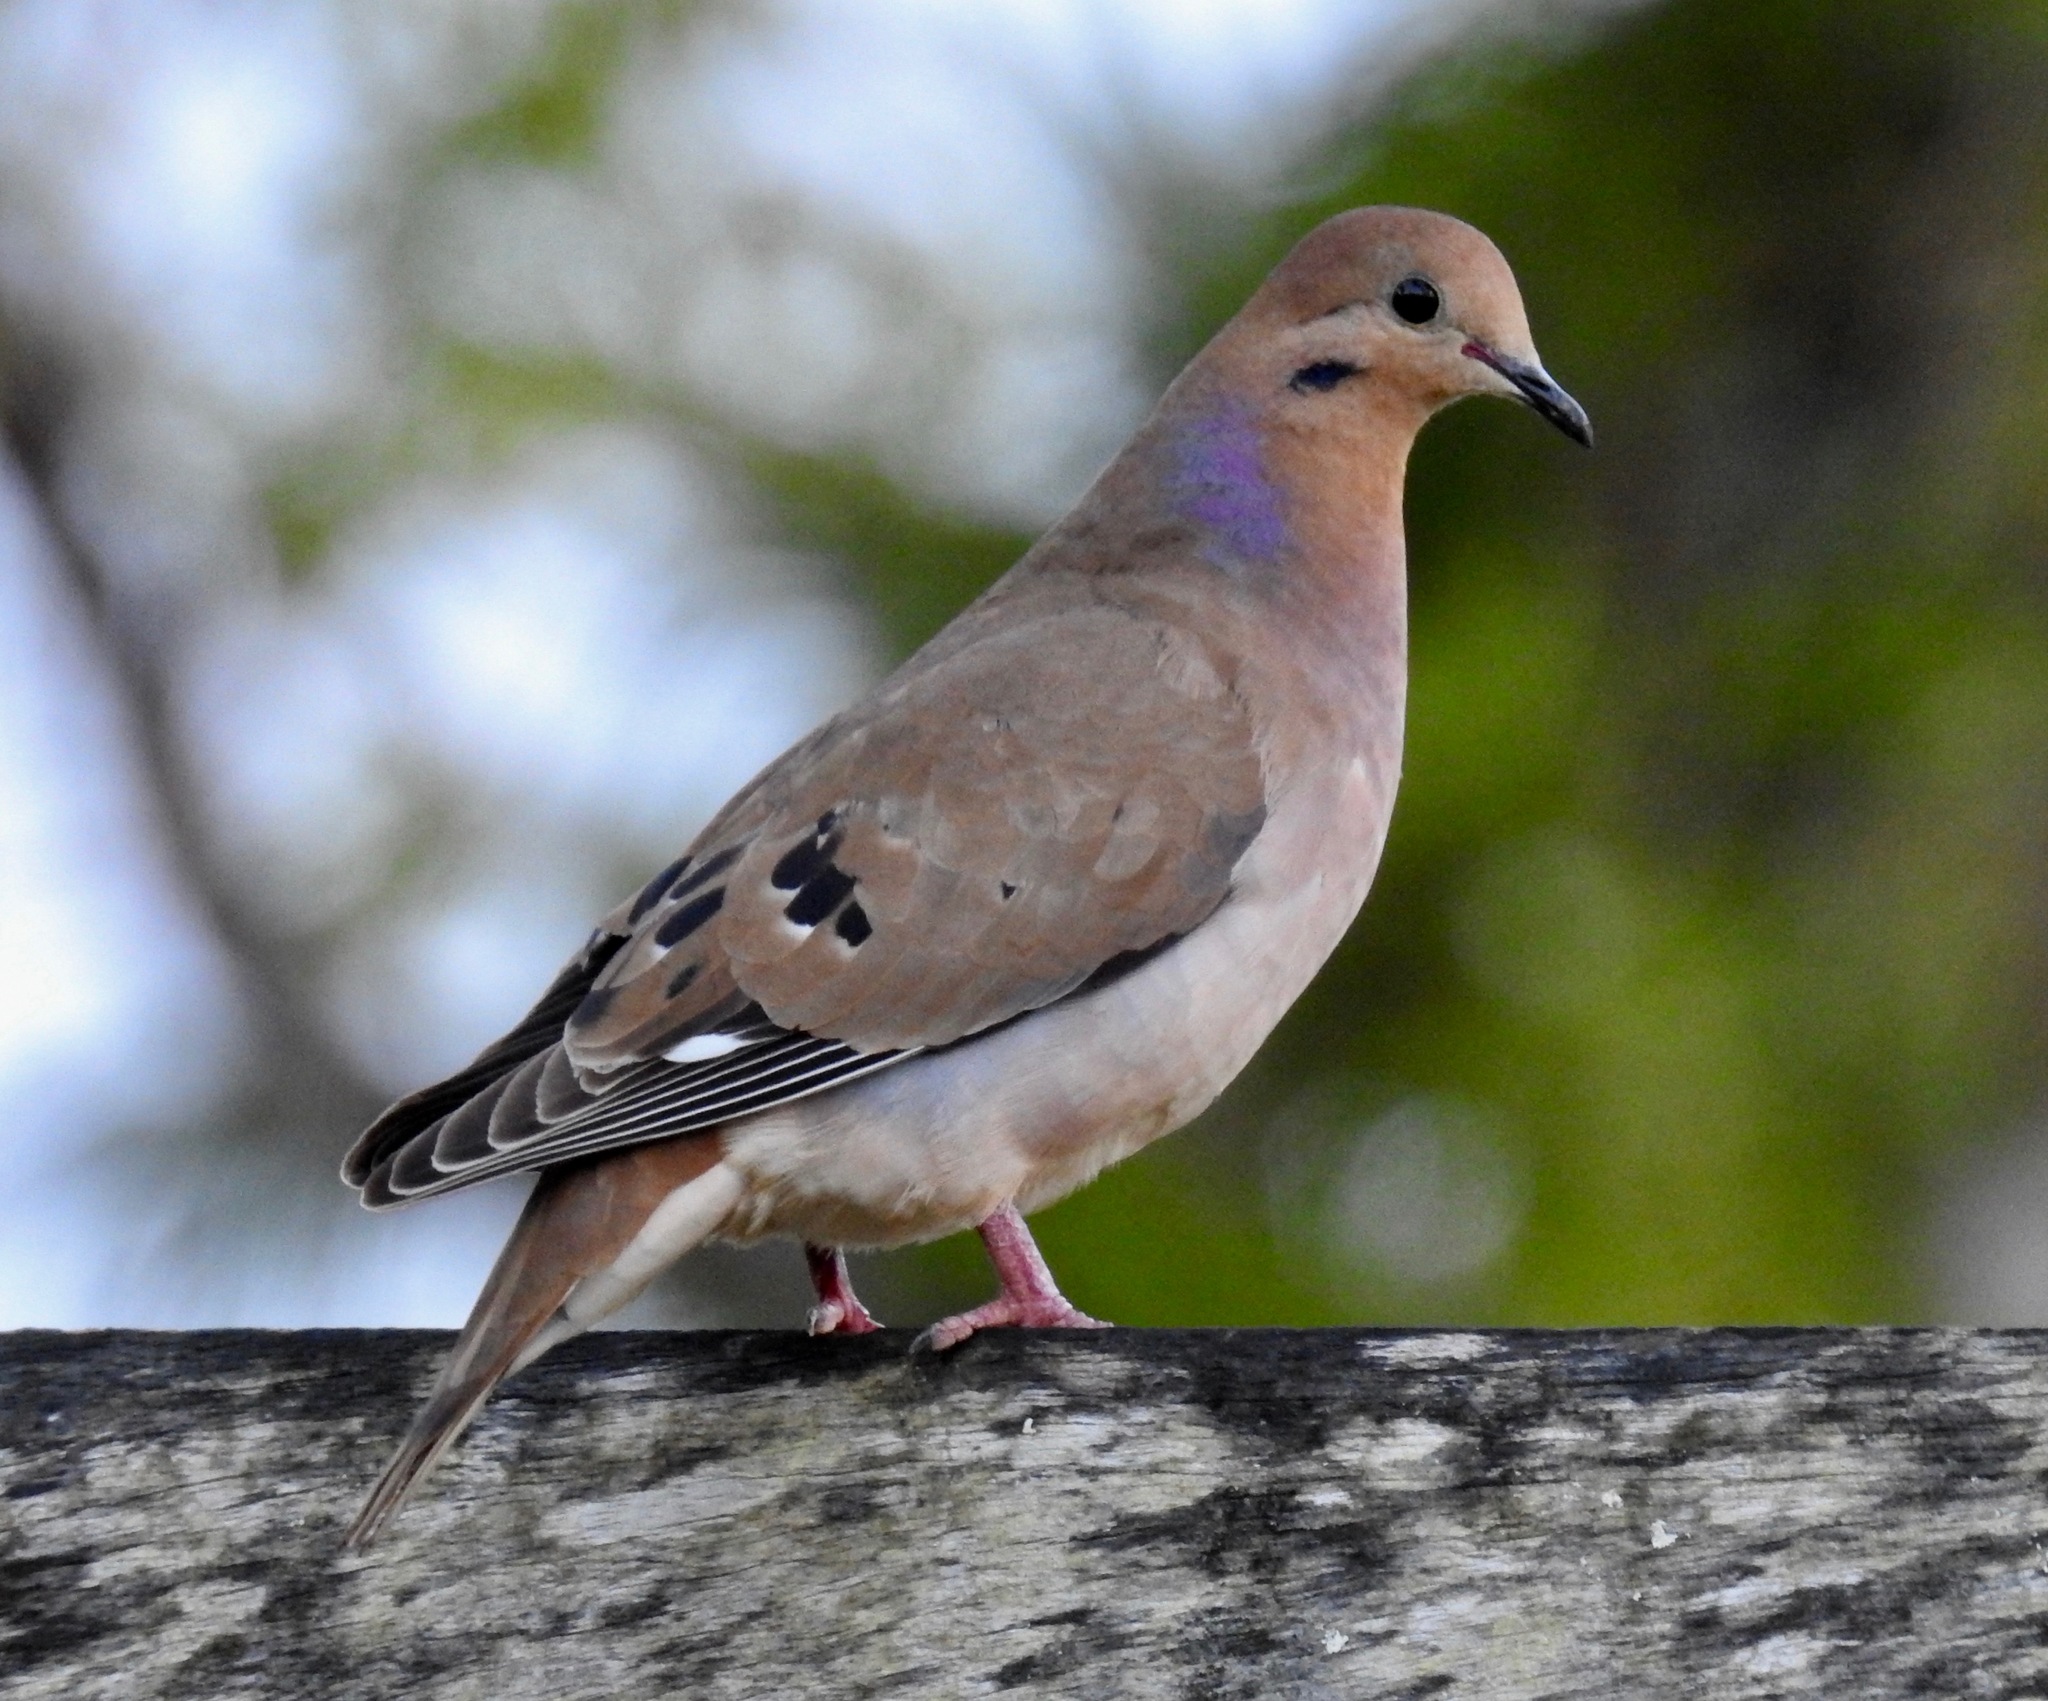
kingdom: Animalia
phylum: Chordata
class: Aves
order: Columbiformes
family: Columbidae
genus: Zenaida
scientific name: Zenaida aurita
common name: Zenaida dove
